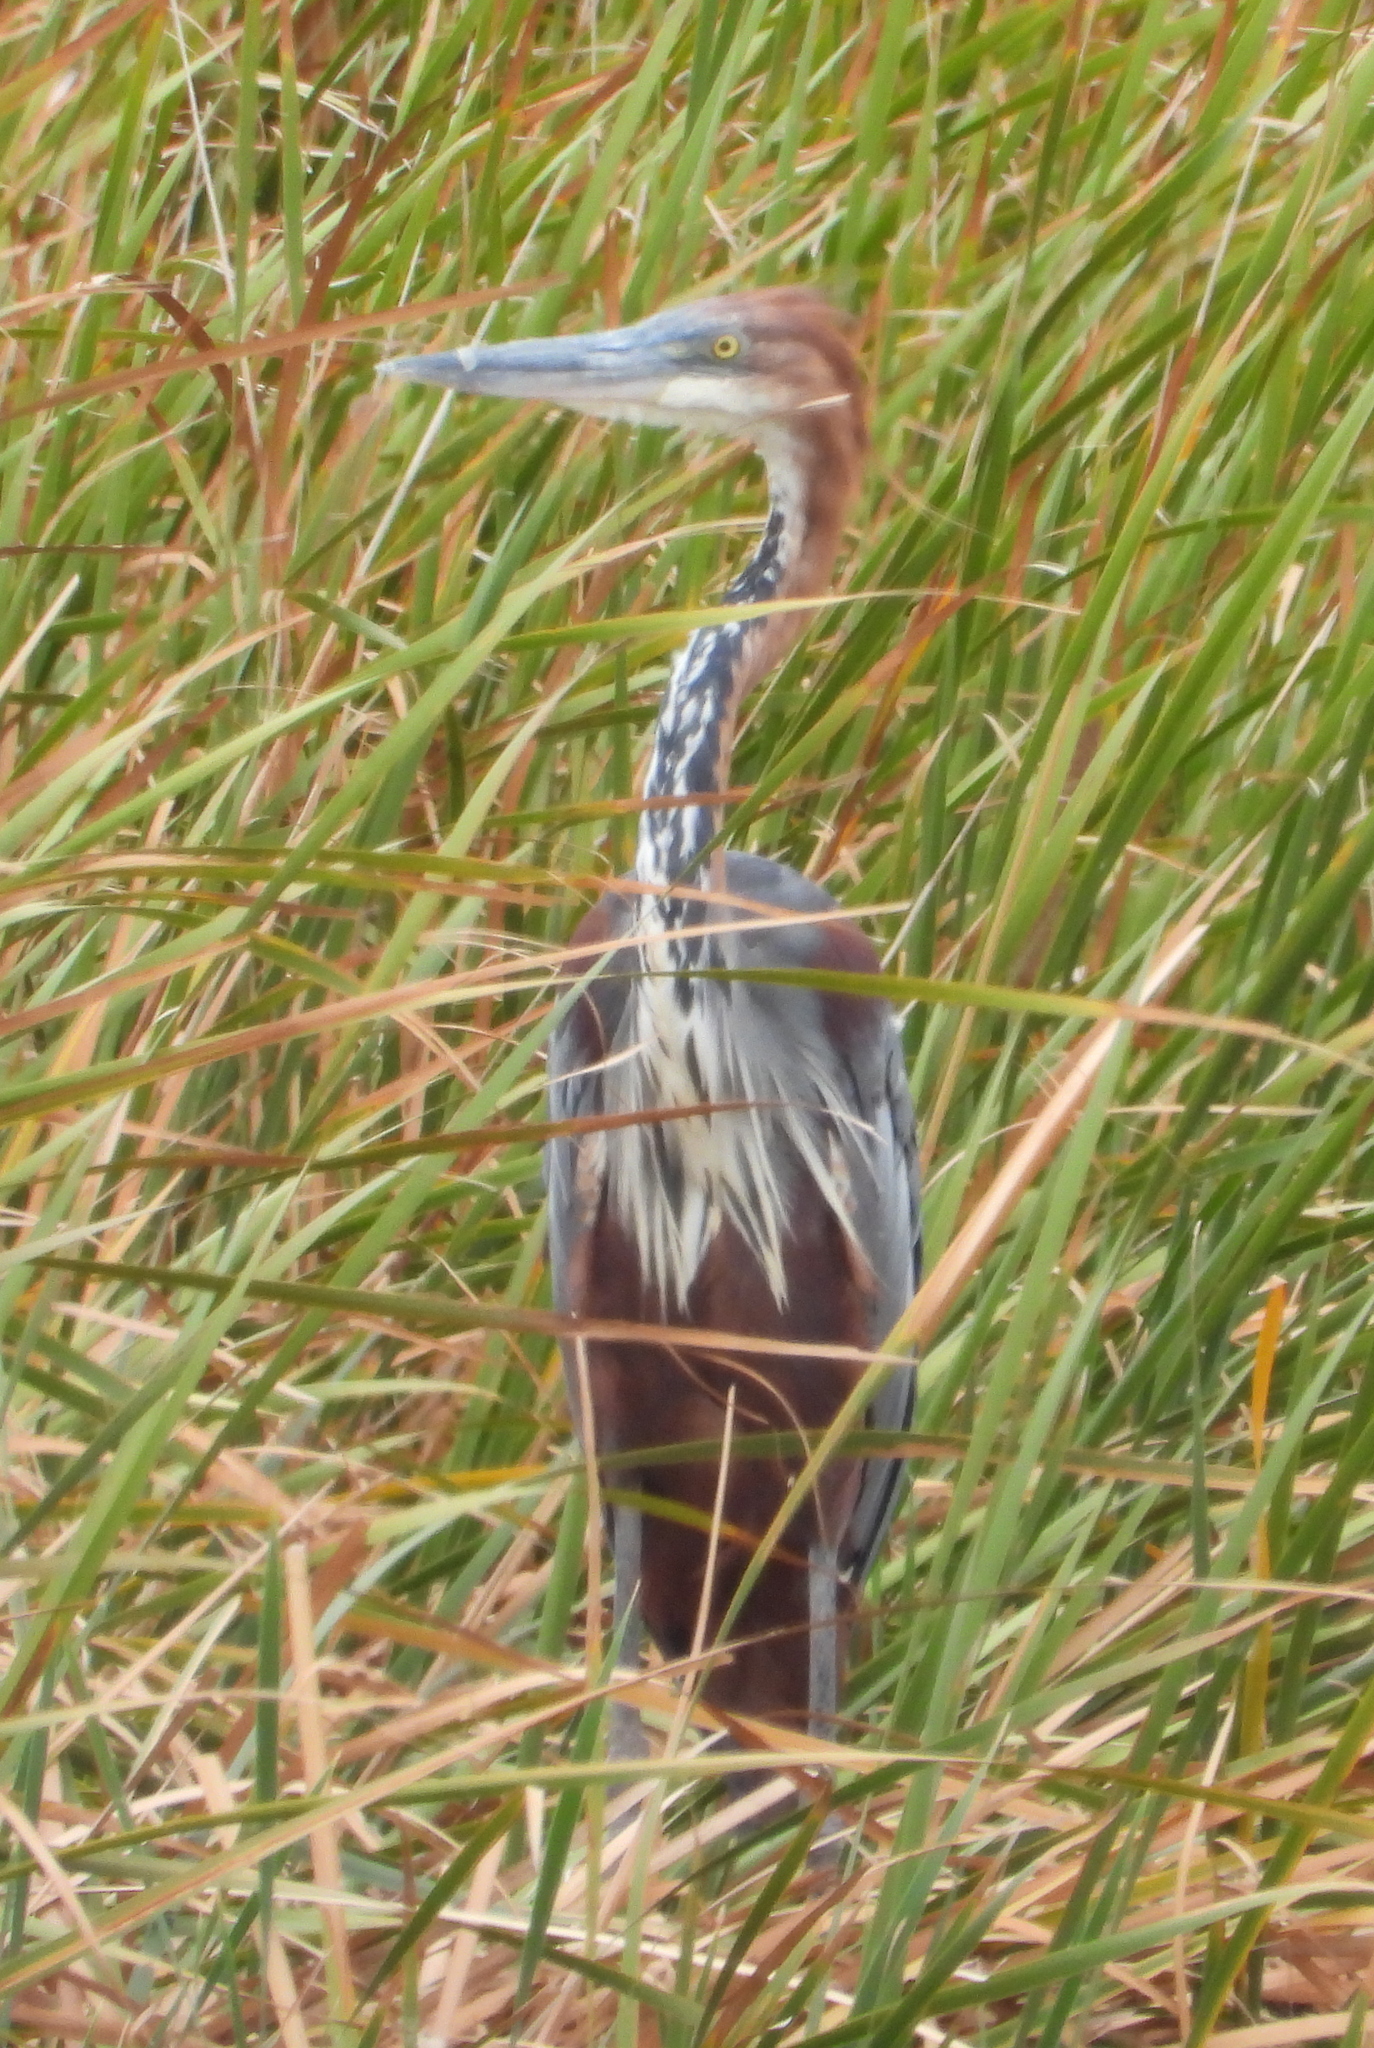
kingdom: Animalia
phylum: Chordata
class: Aves
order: Pelecaniformes
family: Ardeidae
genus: Ardea
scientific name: Ardea goliath
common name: Goliath heron
